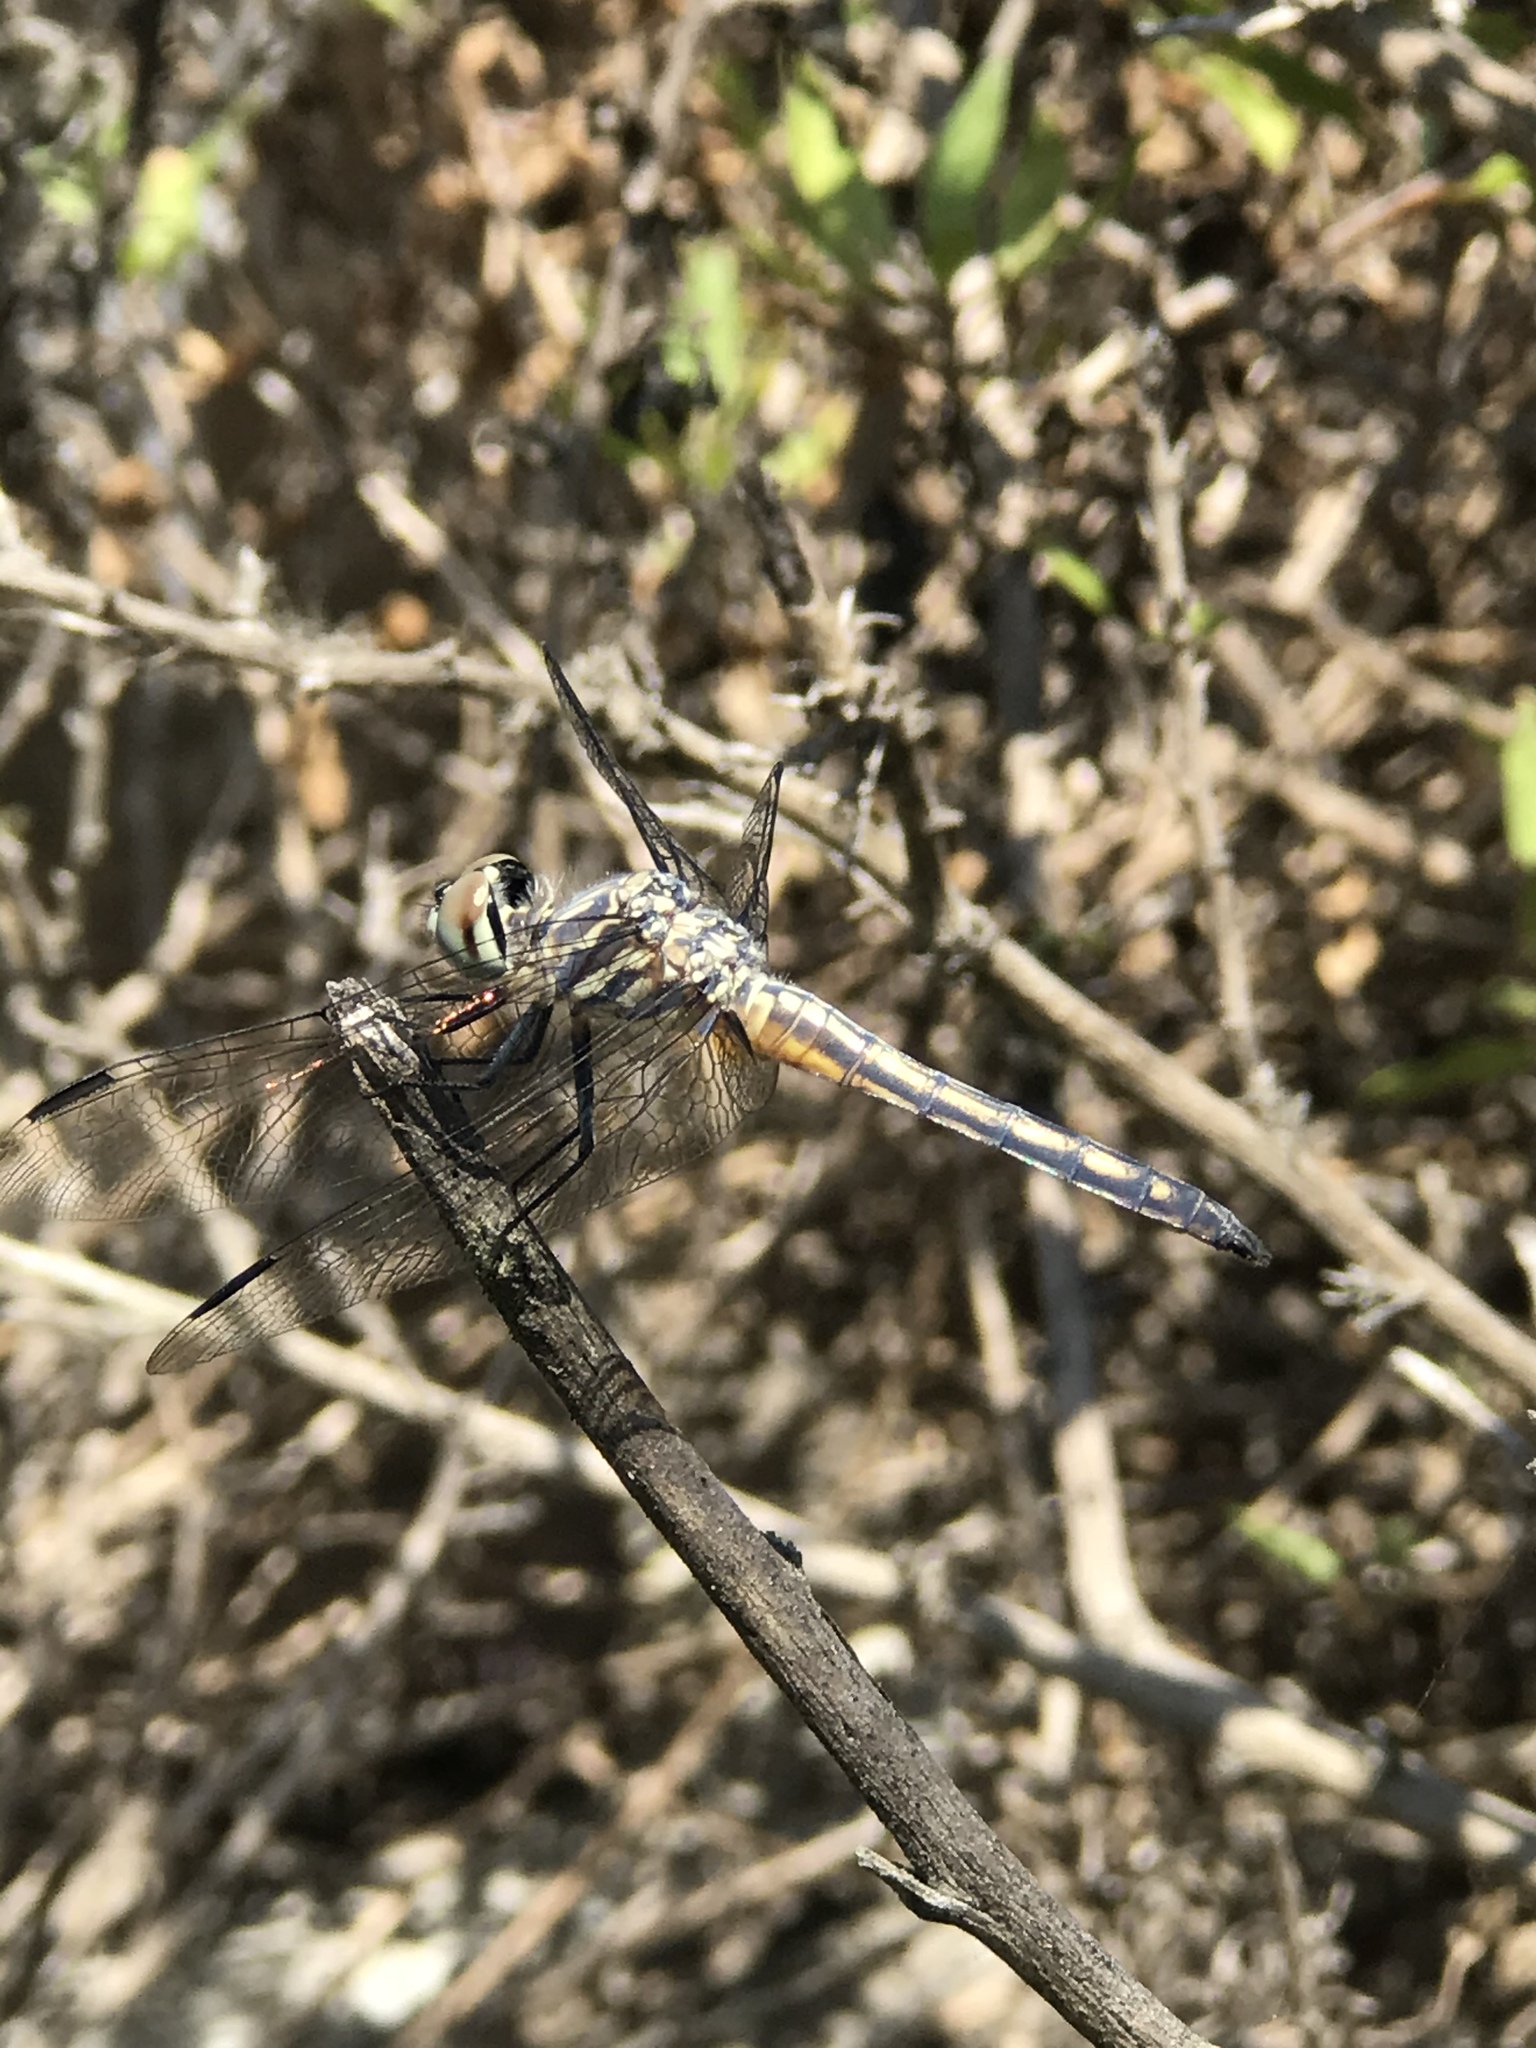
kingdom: Animalia
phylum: Arthropoda
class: Insecta
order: Odonata
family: Libellulidae
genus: Pachydiplax
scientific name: Pachydiplax longipennis
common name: Blue dasher
